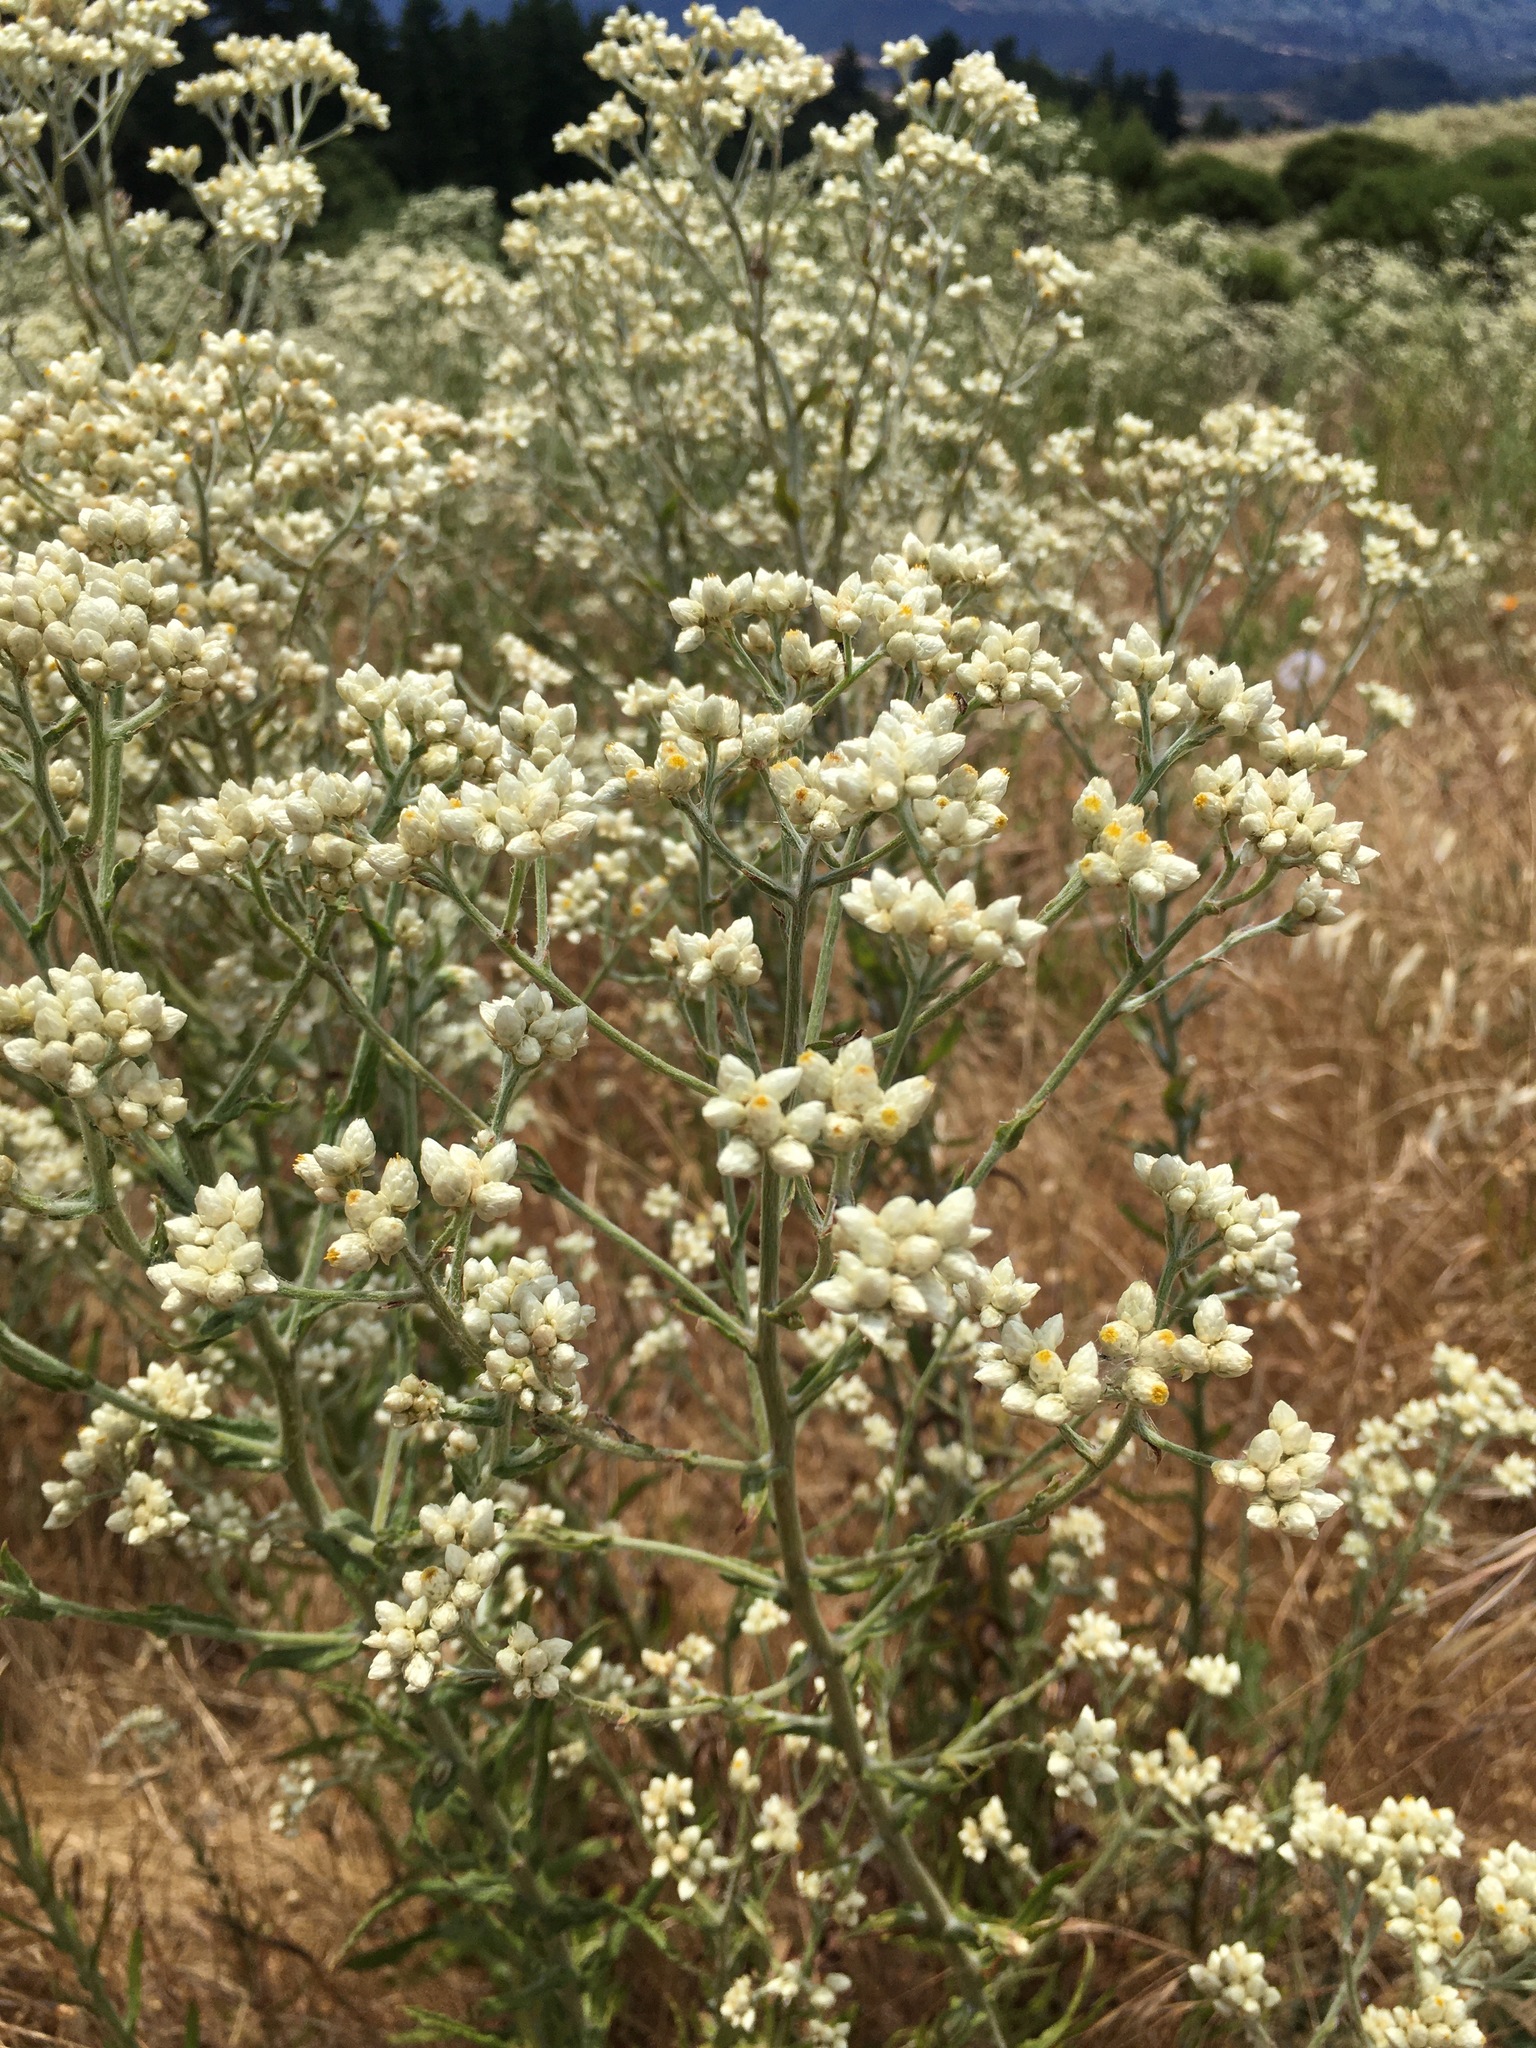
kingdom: Plantae
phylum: Tracheophyta
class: Magnoliopsida
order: Asterales
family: Asteraceae
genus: Pseudognaphalium
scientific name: Pseudognaphalium californicum
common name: California rabbit-tobacco
